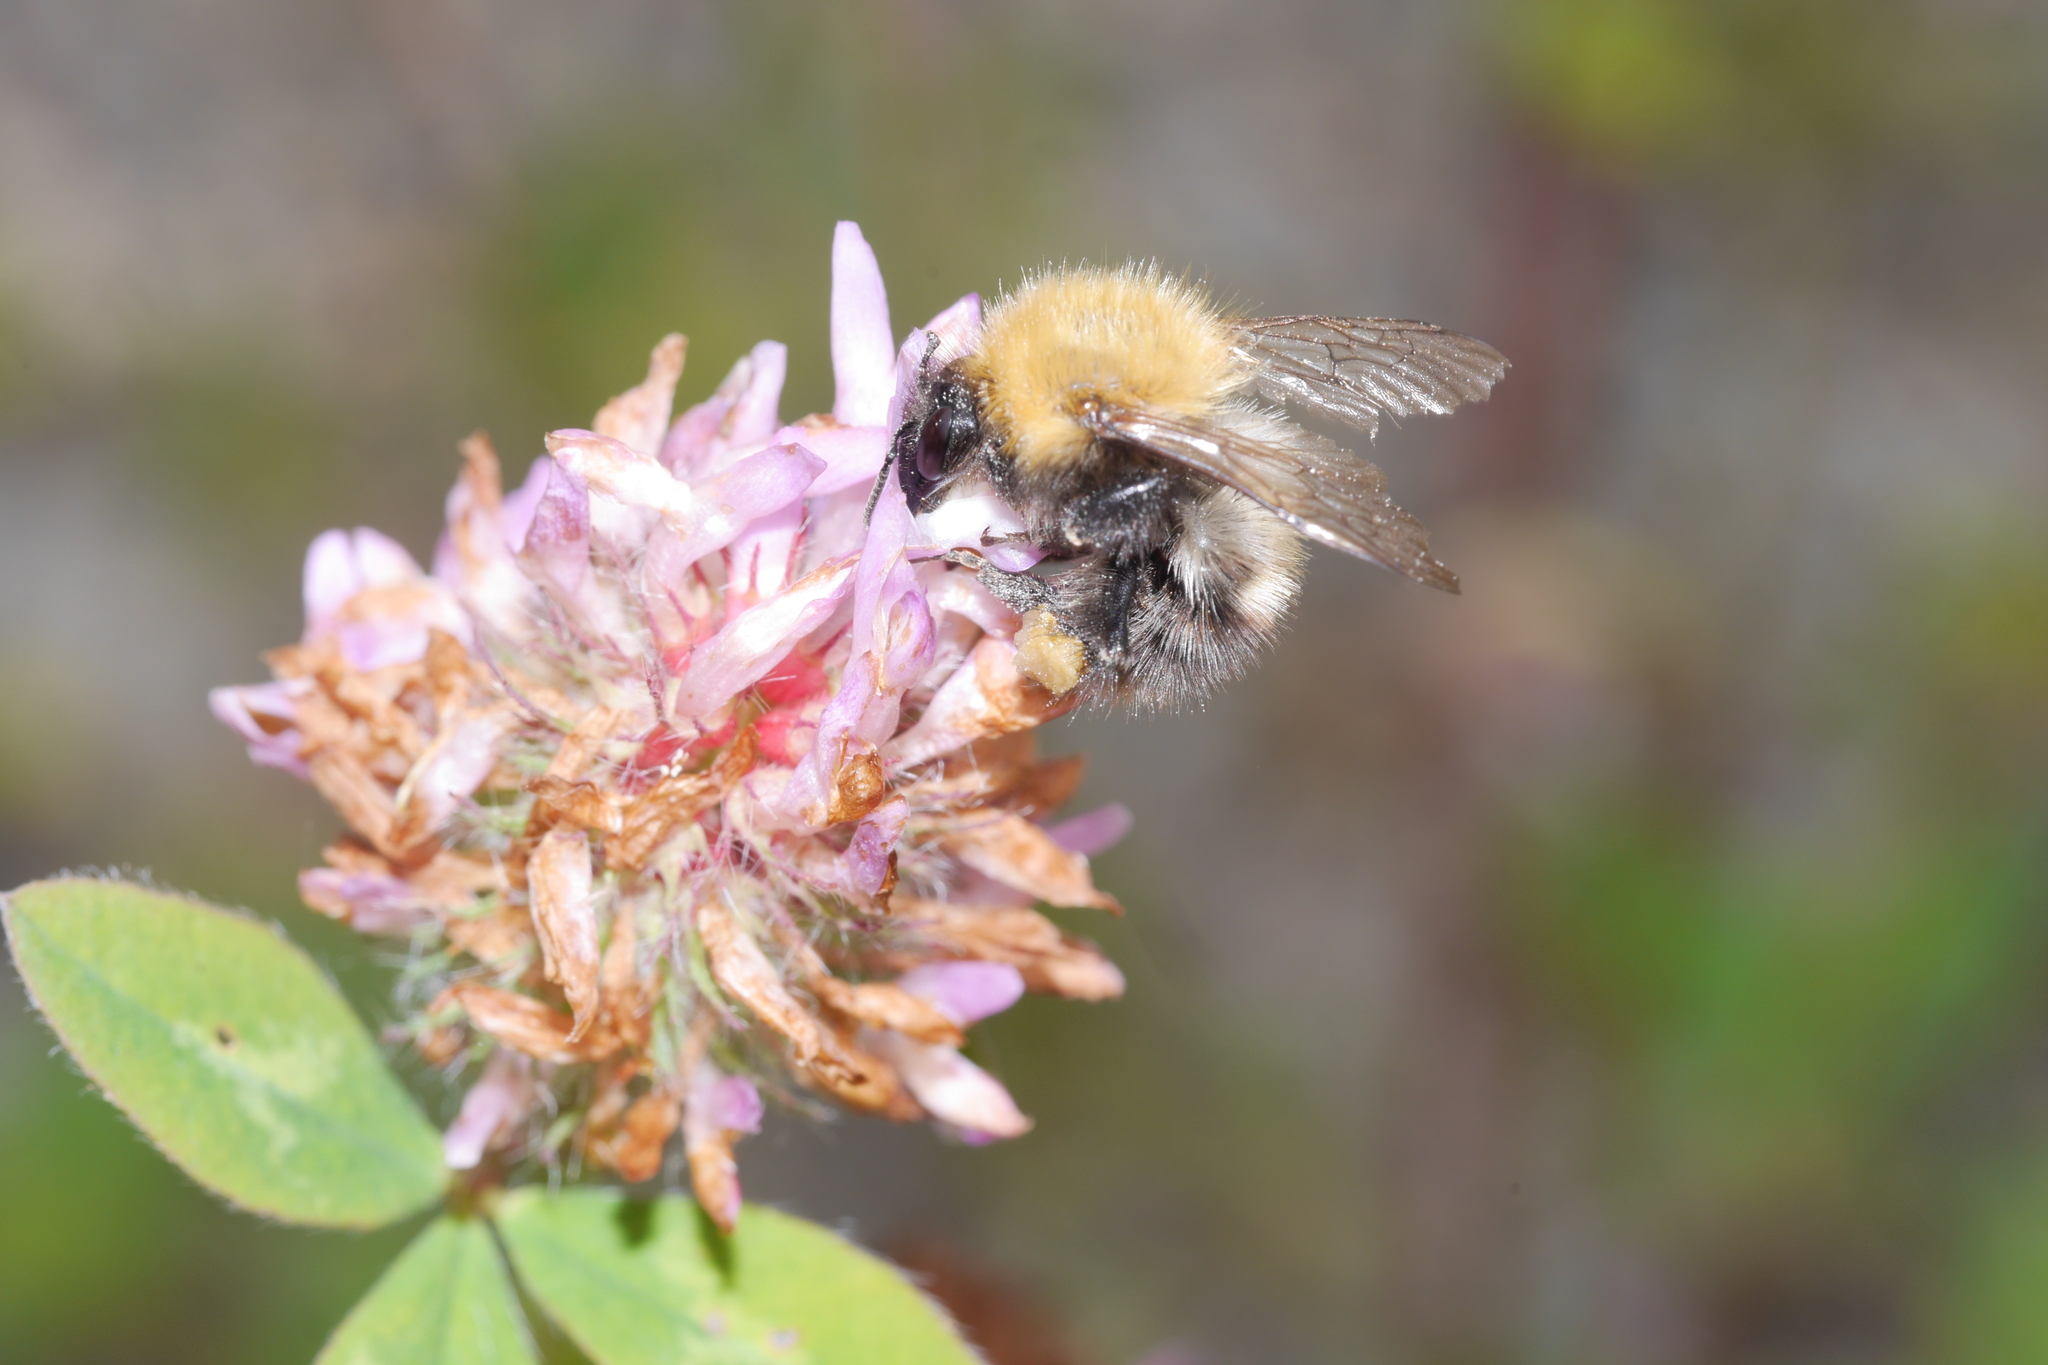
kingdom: Animalia
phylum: Arthropoda
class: Insecta
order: Hymenoptera
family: Apidae
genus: Bombus
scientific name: Bombus pascuorum
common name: Common carder bee
